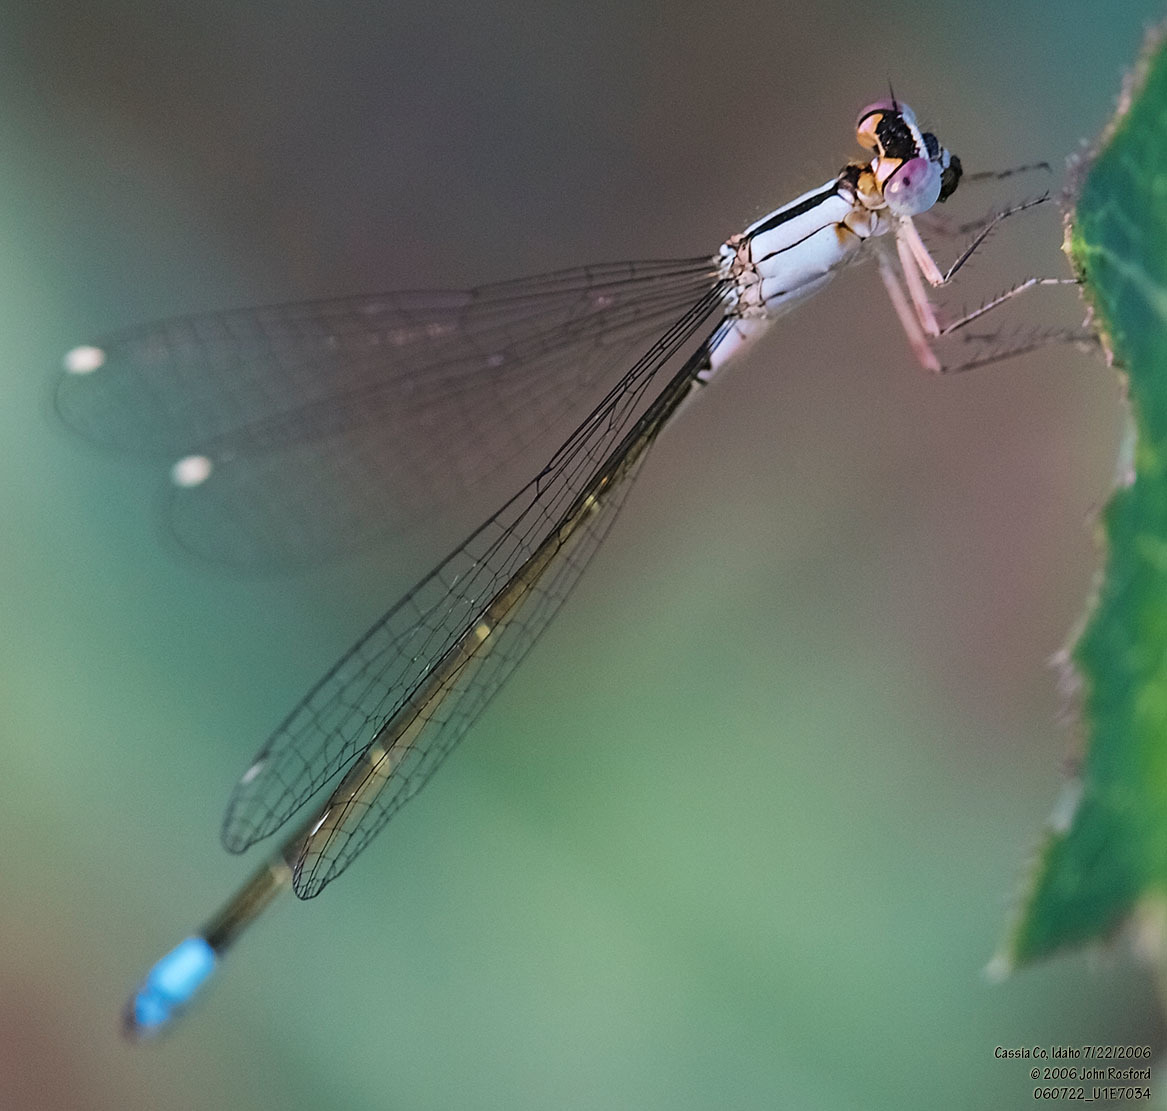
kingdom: Animalia
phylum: Arthropoda
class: Insecta
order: Odonata
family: Coenagrionidae
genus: Ischnura
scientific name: Ischnura cervula
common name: Pacific forktail
